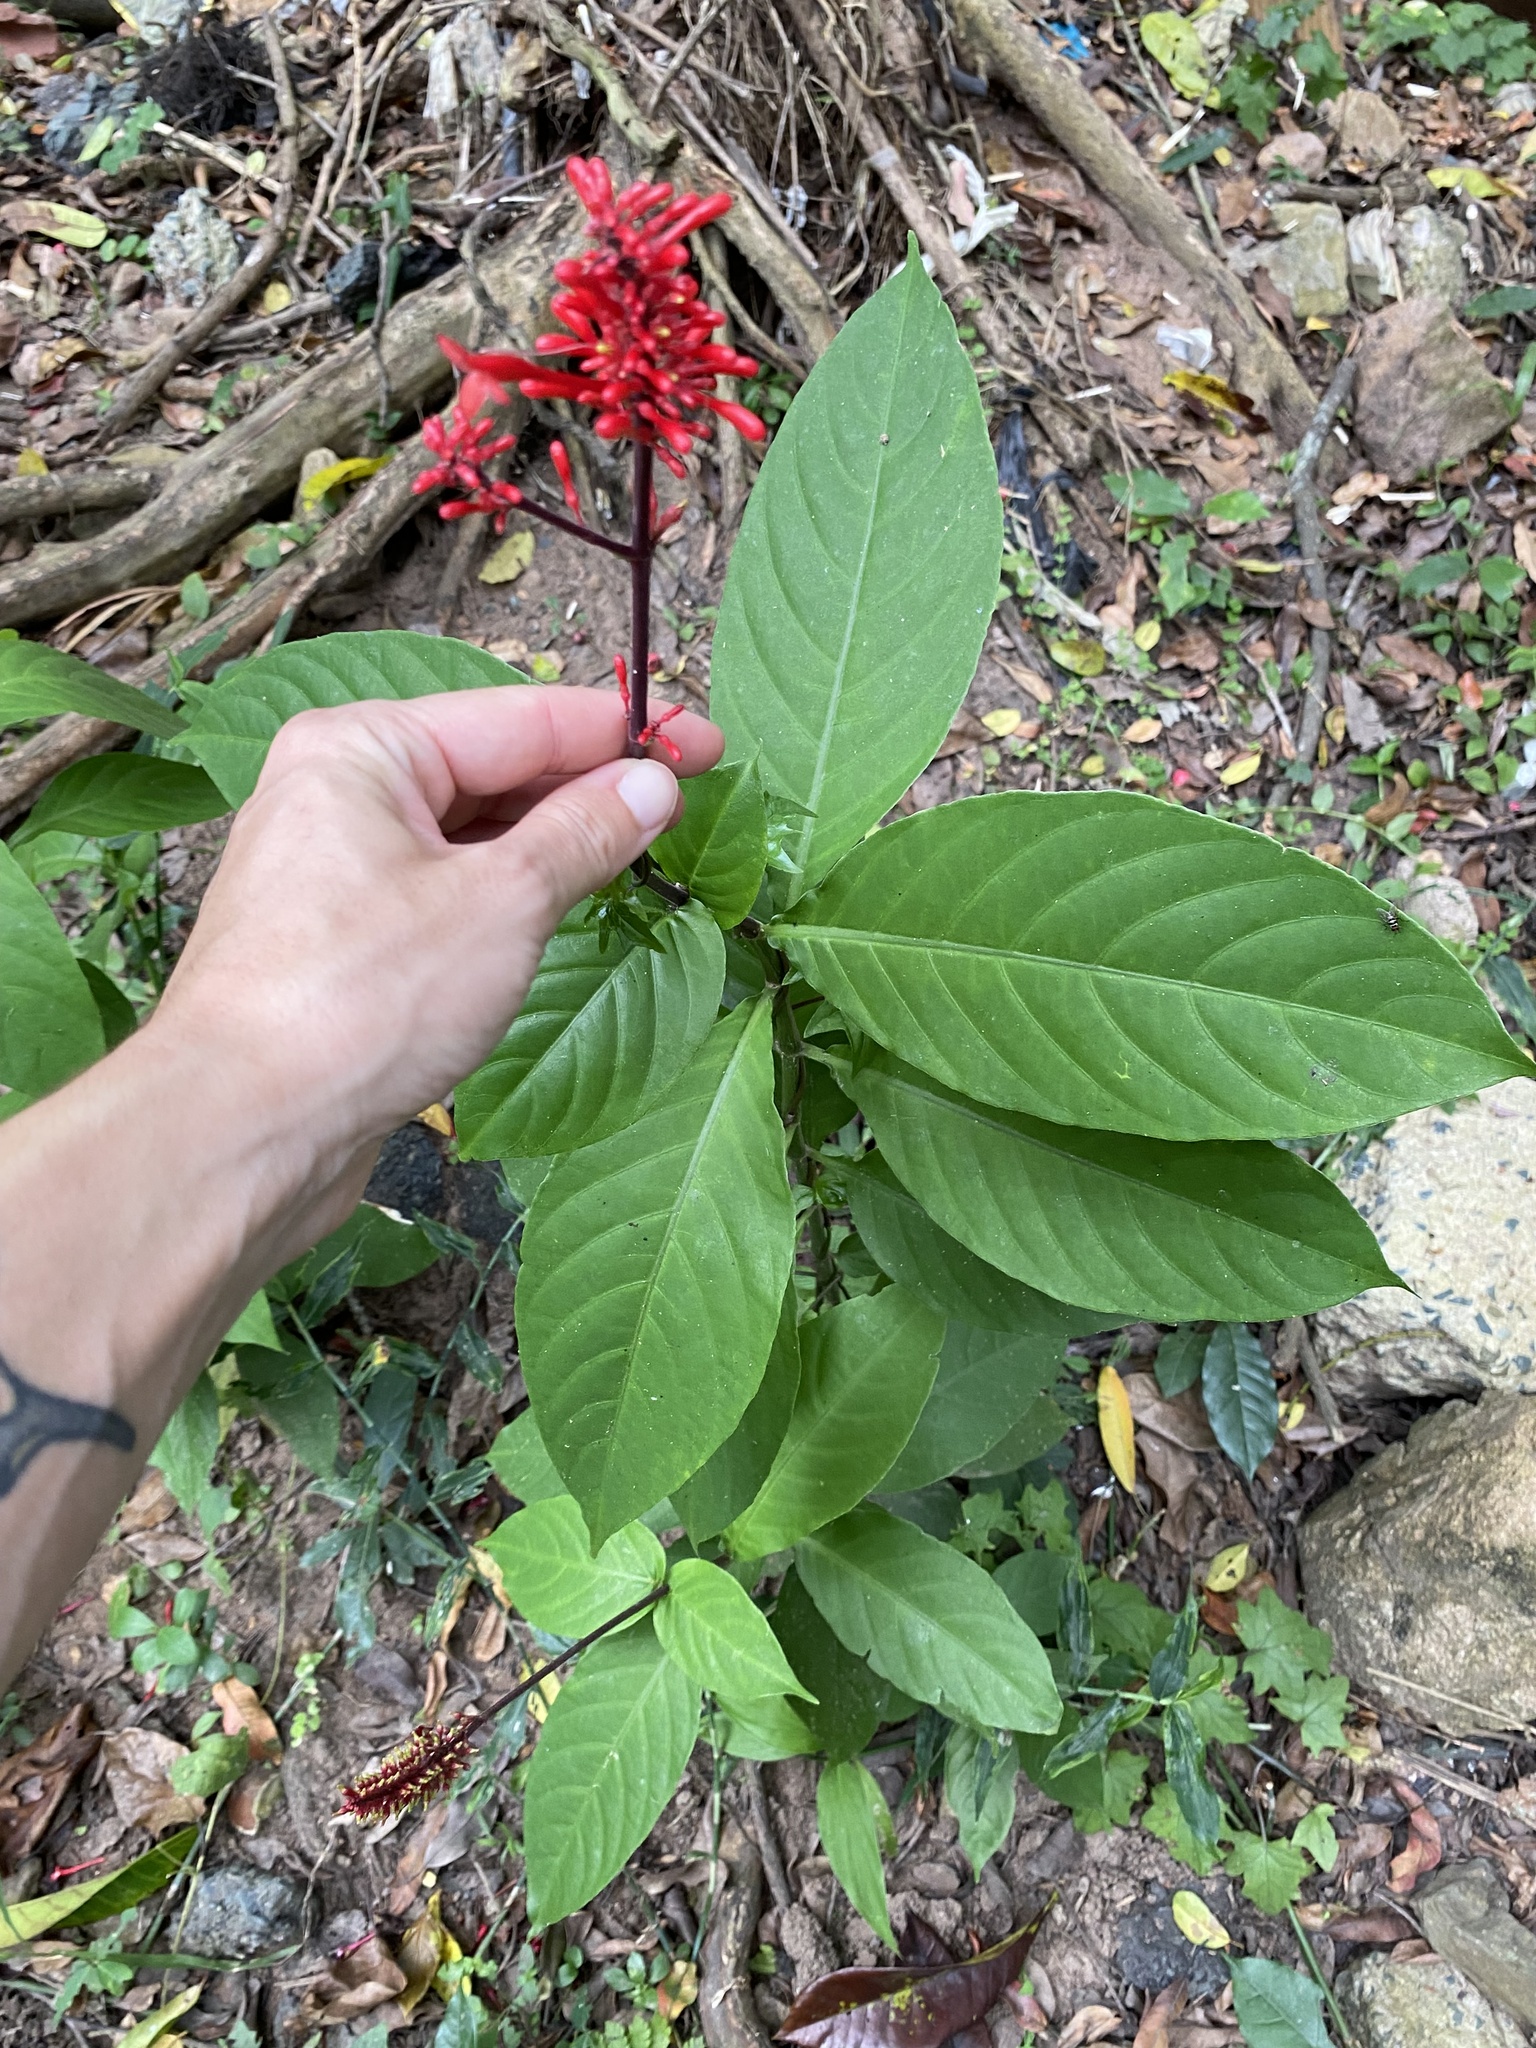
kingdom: Plantae
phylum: Tracheophyta
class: Magnoliopsida
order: Lamiales
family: Acanthaceae
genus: Odontonema
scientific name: Odontonema tubaeforme
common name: Firespike
